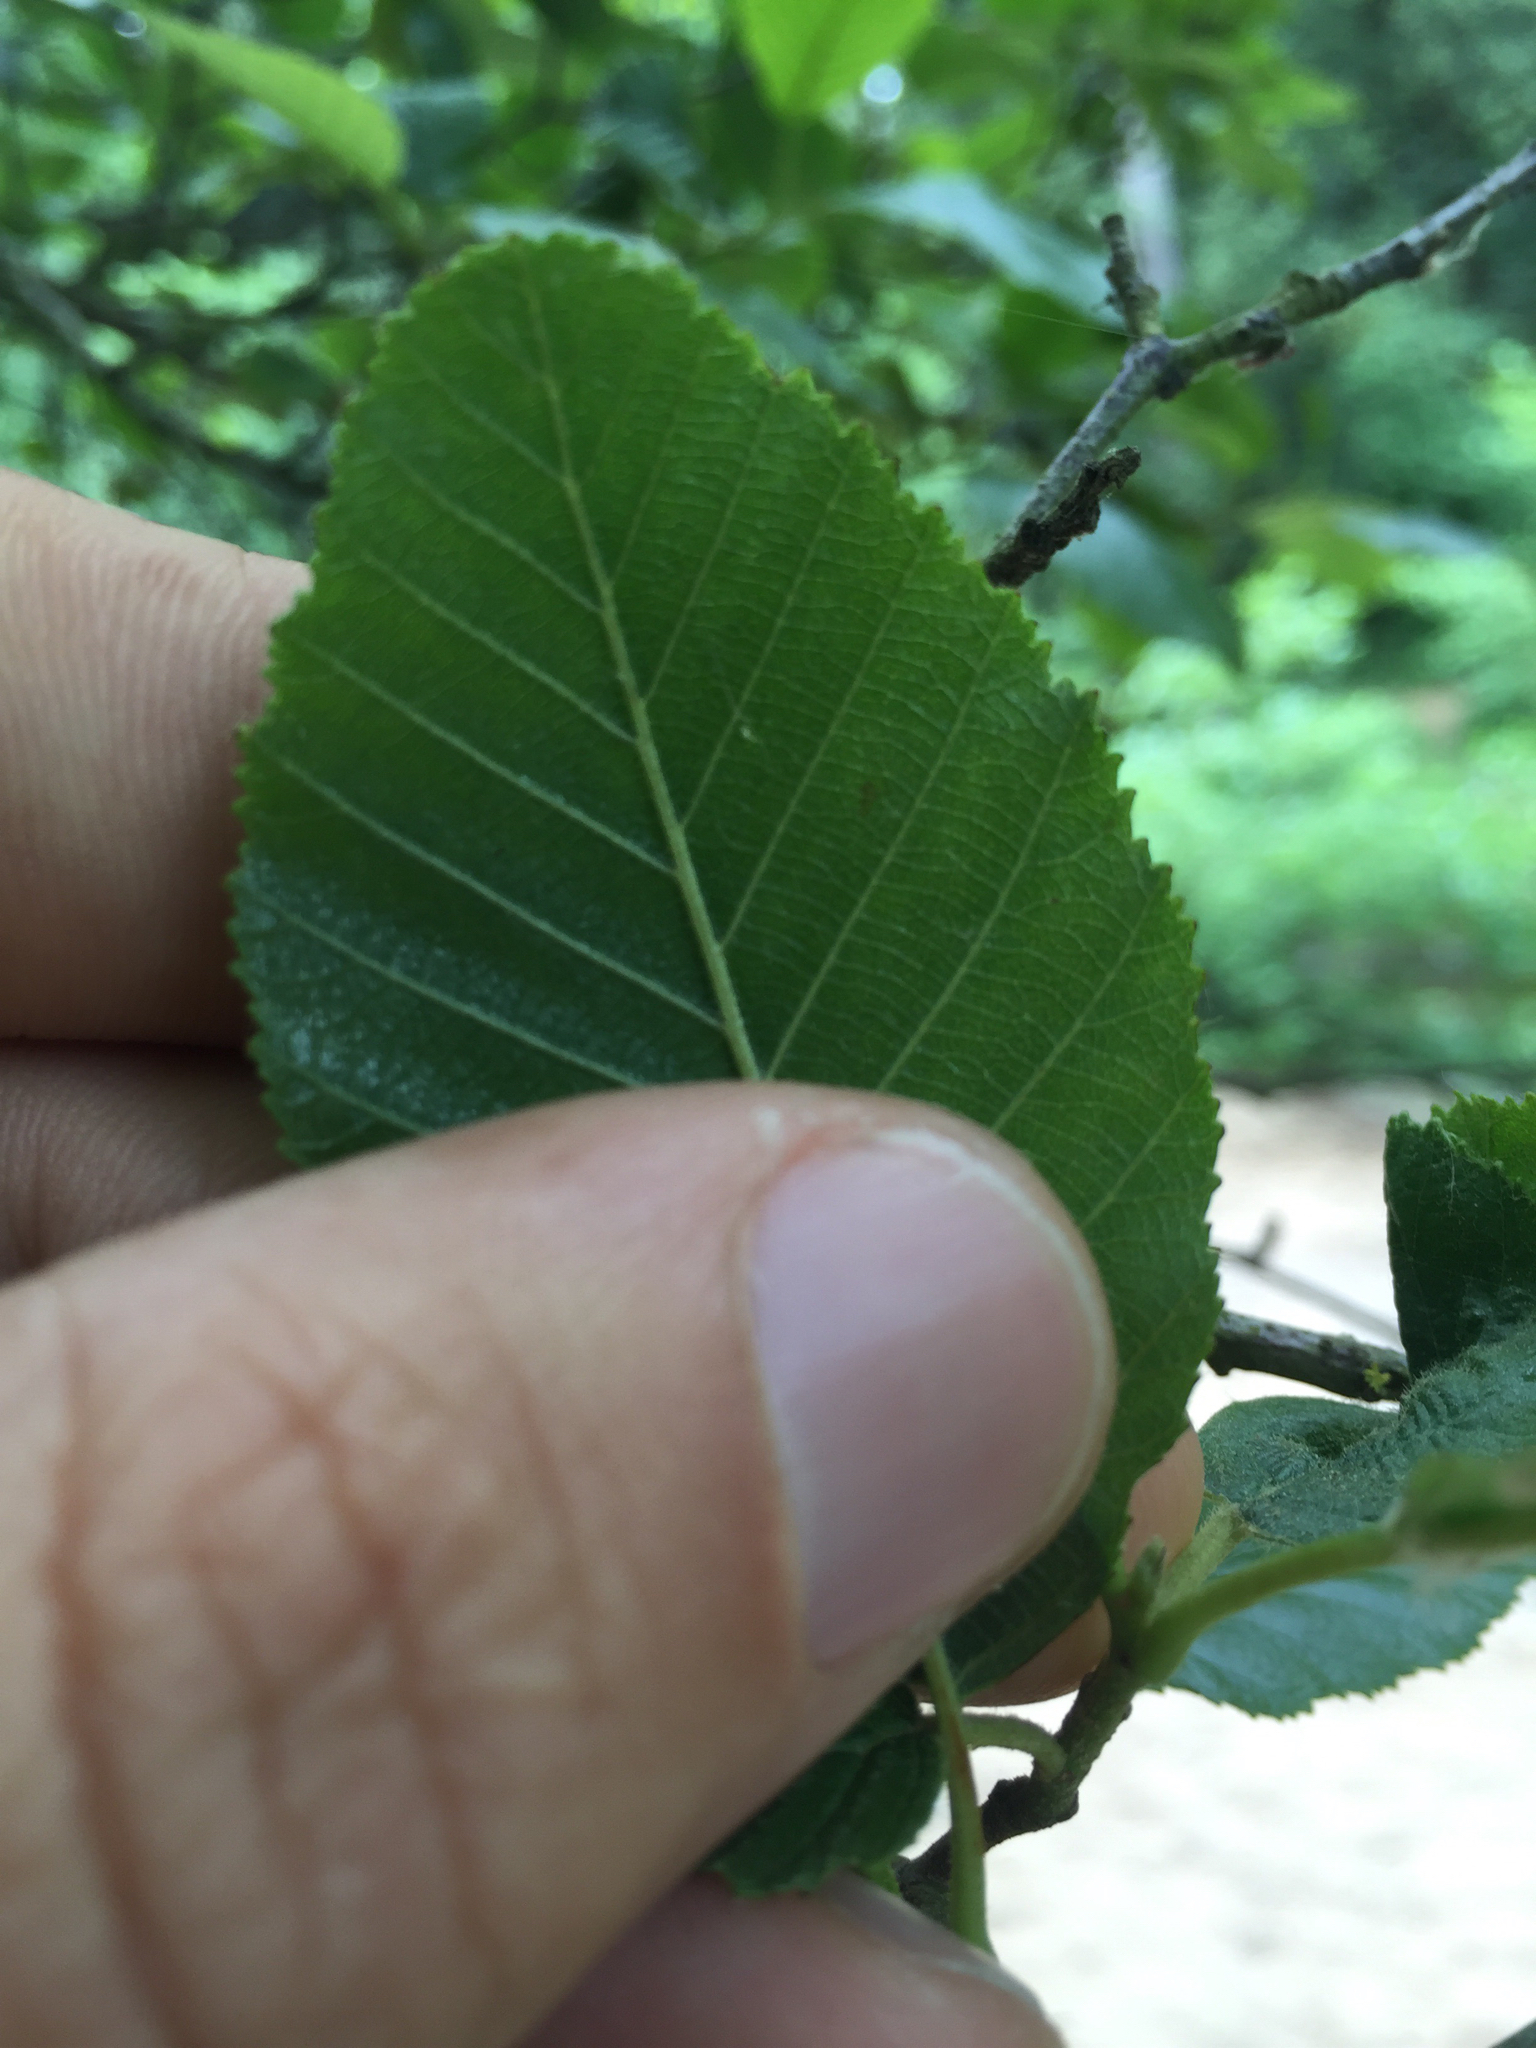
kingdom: Plantae
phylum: Tracheophyta
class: Magnoliopsida
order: Fagales
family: Betulaceae
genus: Alnus
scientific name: Alnus rhombifolia
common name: California alder
